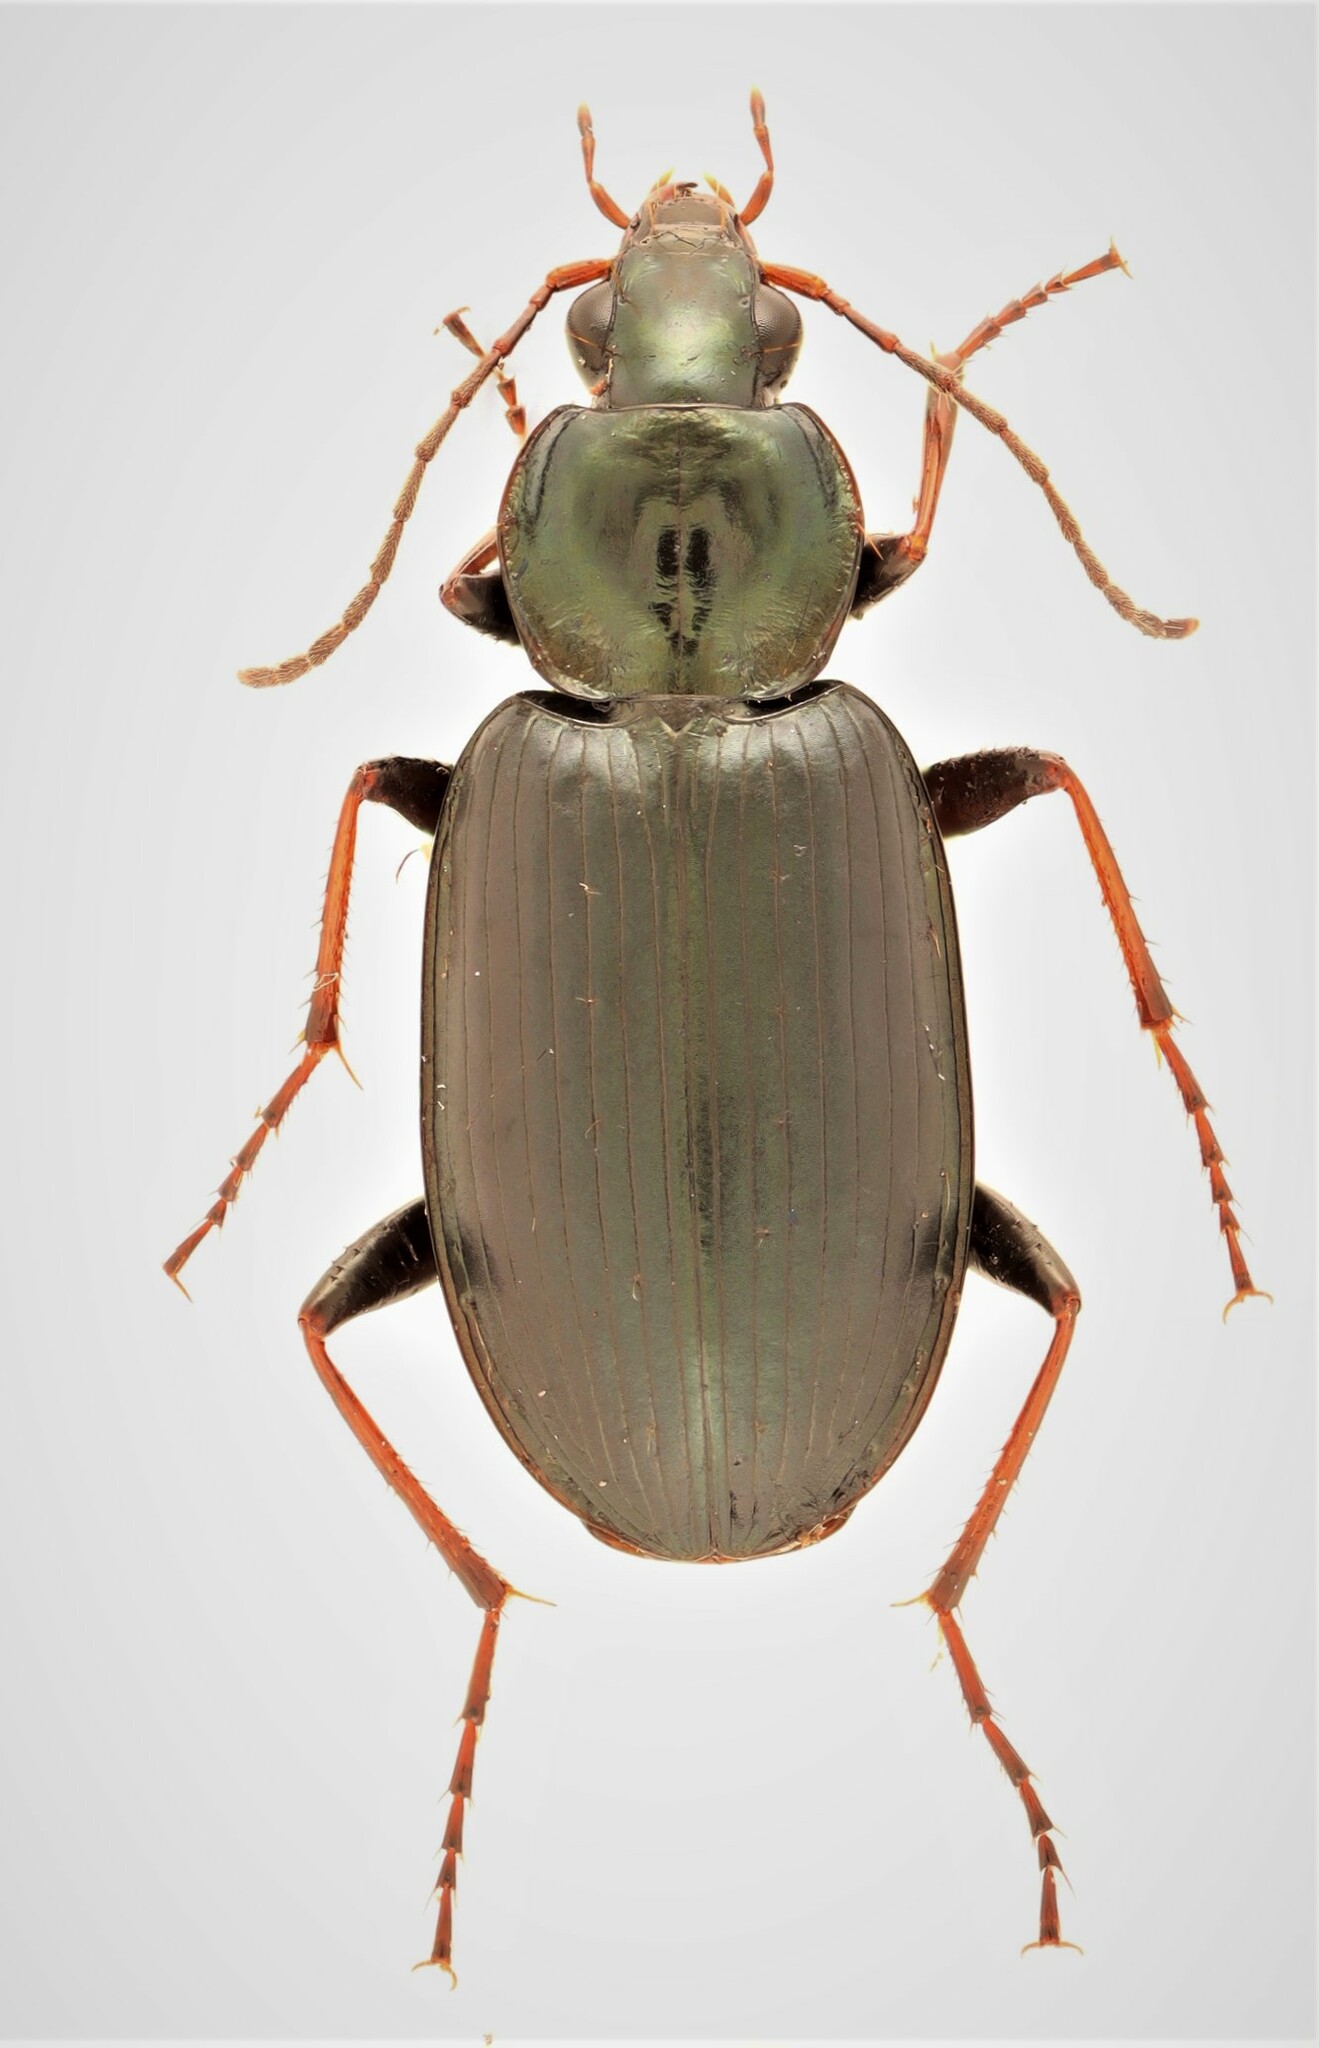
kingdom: Animalia
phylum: Arthropoda
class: Insecta
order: Coleoptera
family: Carabidae
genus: Agonum
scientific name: Agonum placidum
